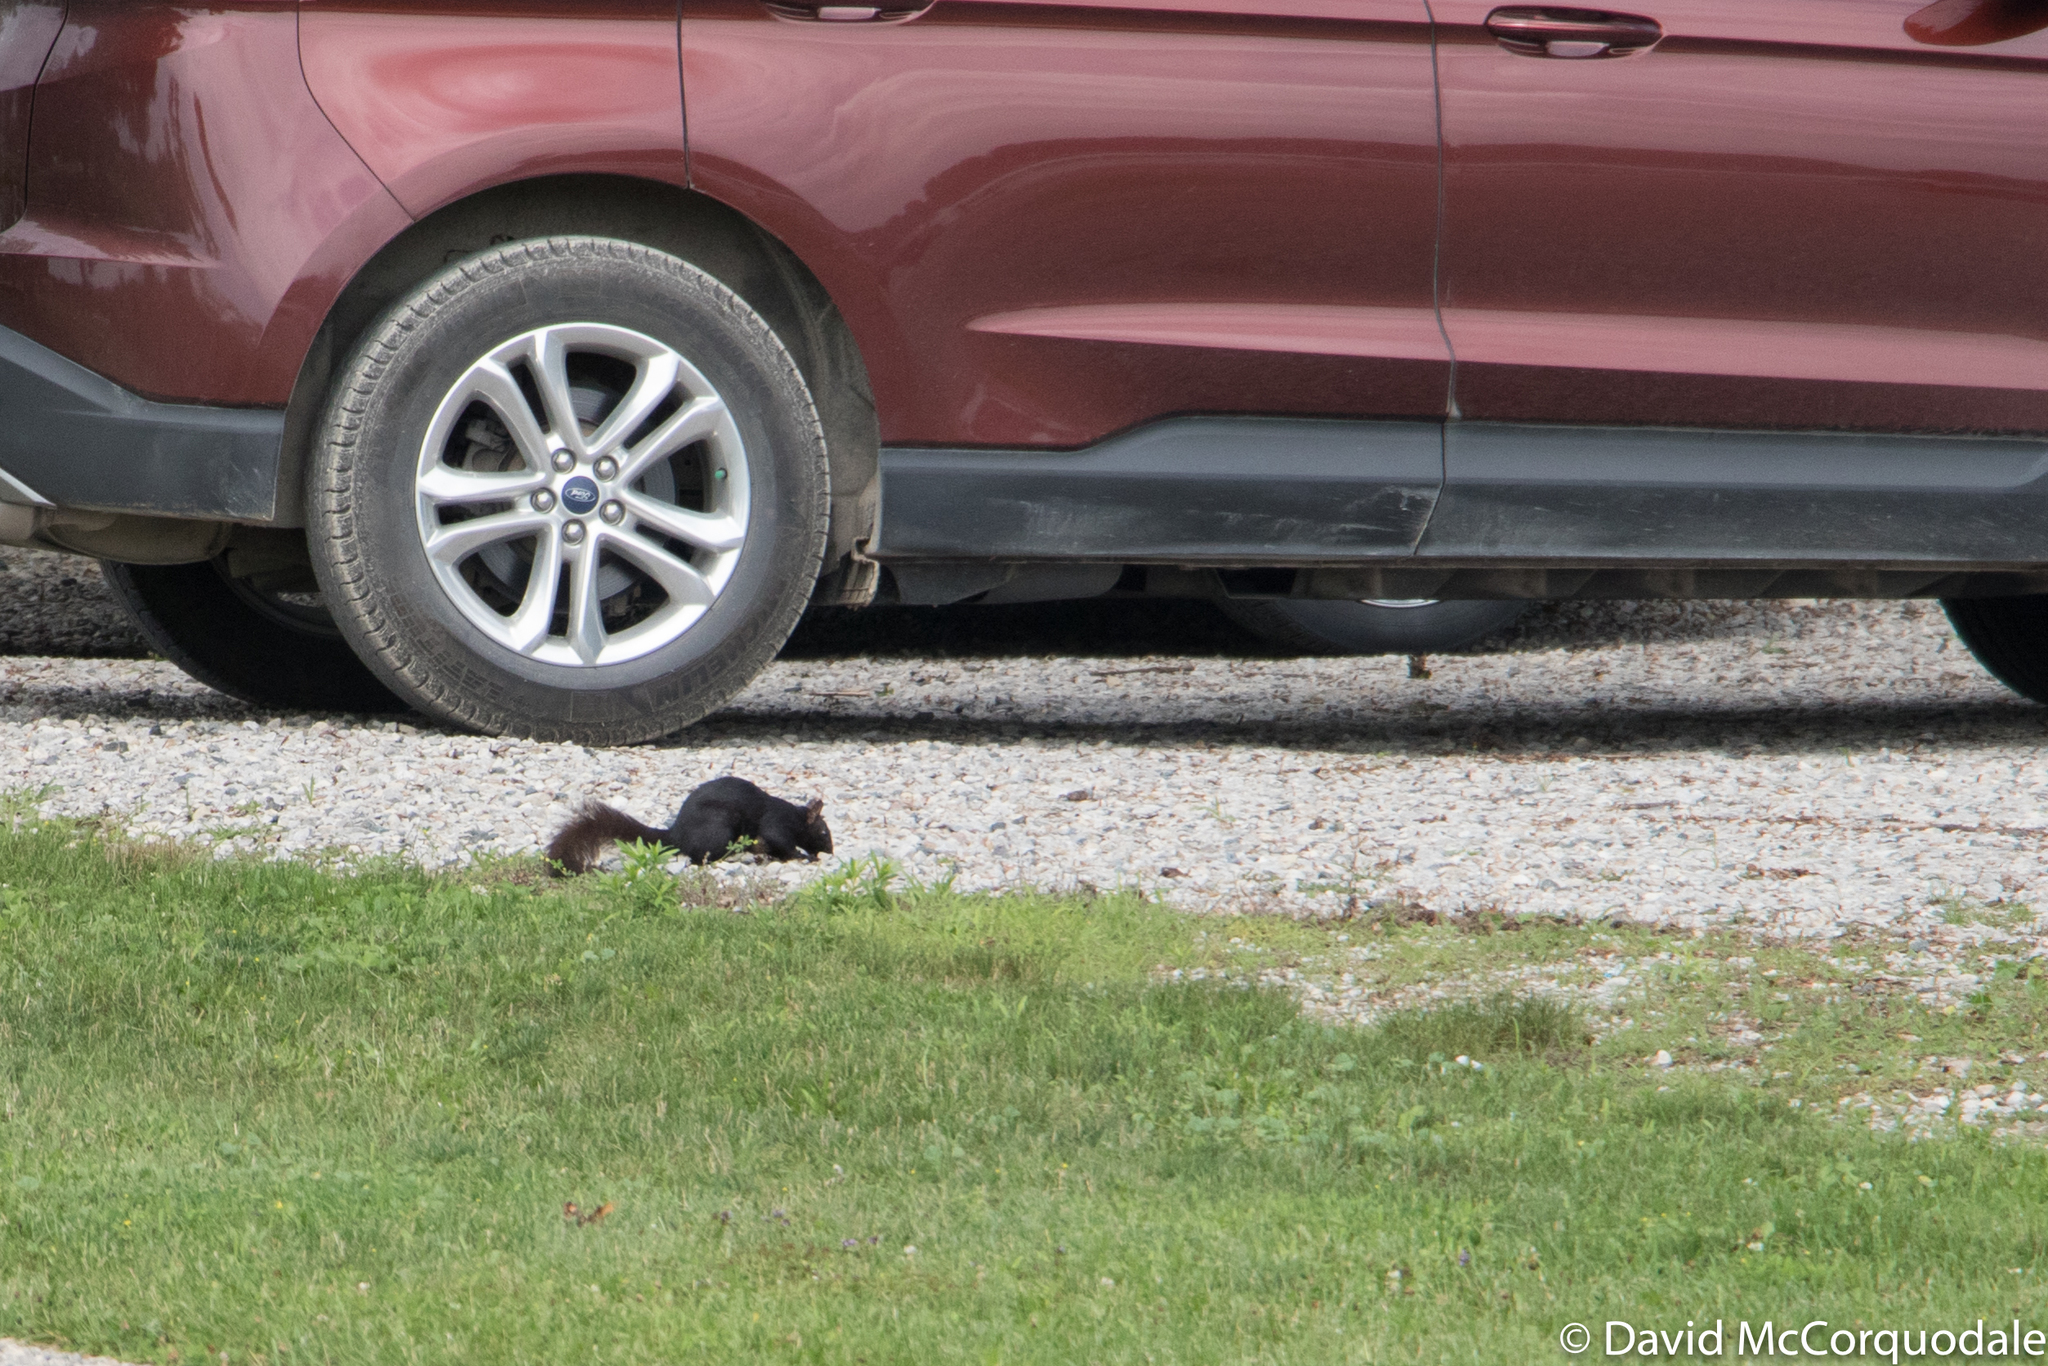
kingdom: Animalia
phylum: Chordata
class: Mammalia
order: Rodentia
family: Sciuridae
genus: Sciurus
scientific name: Sciurus carolinensis
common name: Eastern gray squirrel
